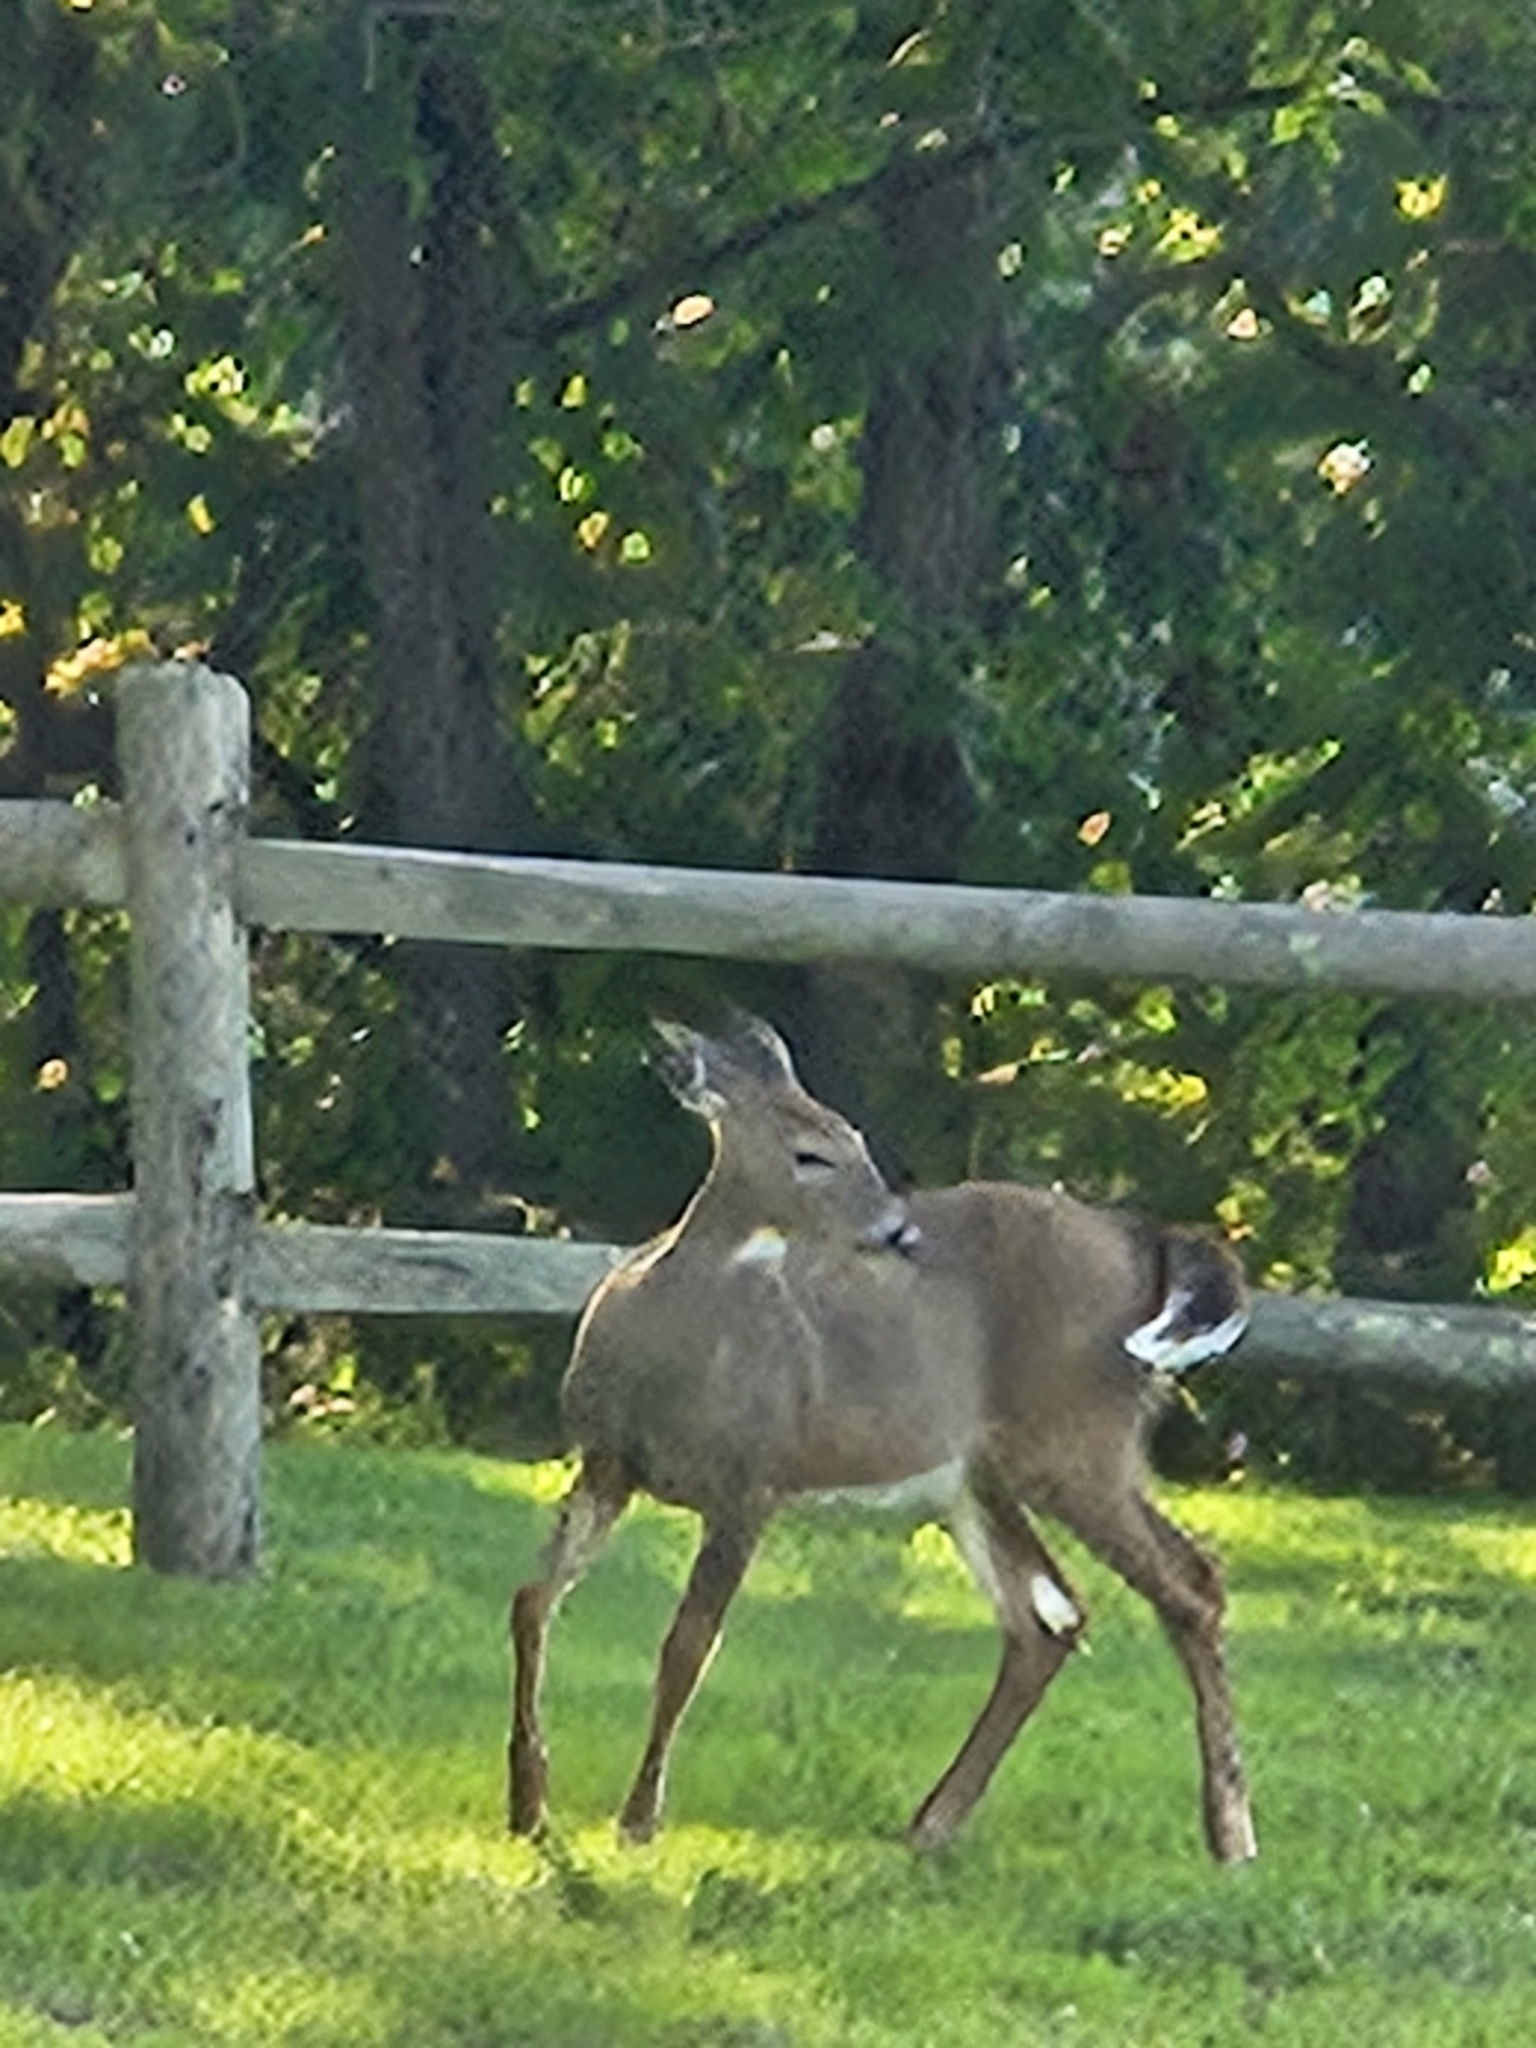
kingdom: Animalia
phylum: Chordata
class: Mammalia
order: Artiodactyla
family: Cervidae
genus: Odocoileus
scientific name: Odocoileus virginianus
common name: White-tailed deer
